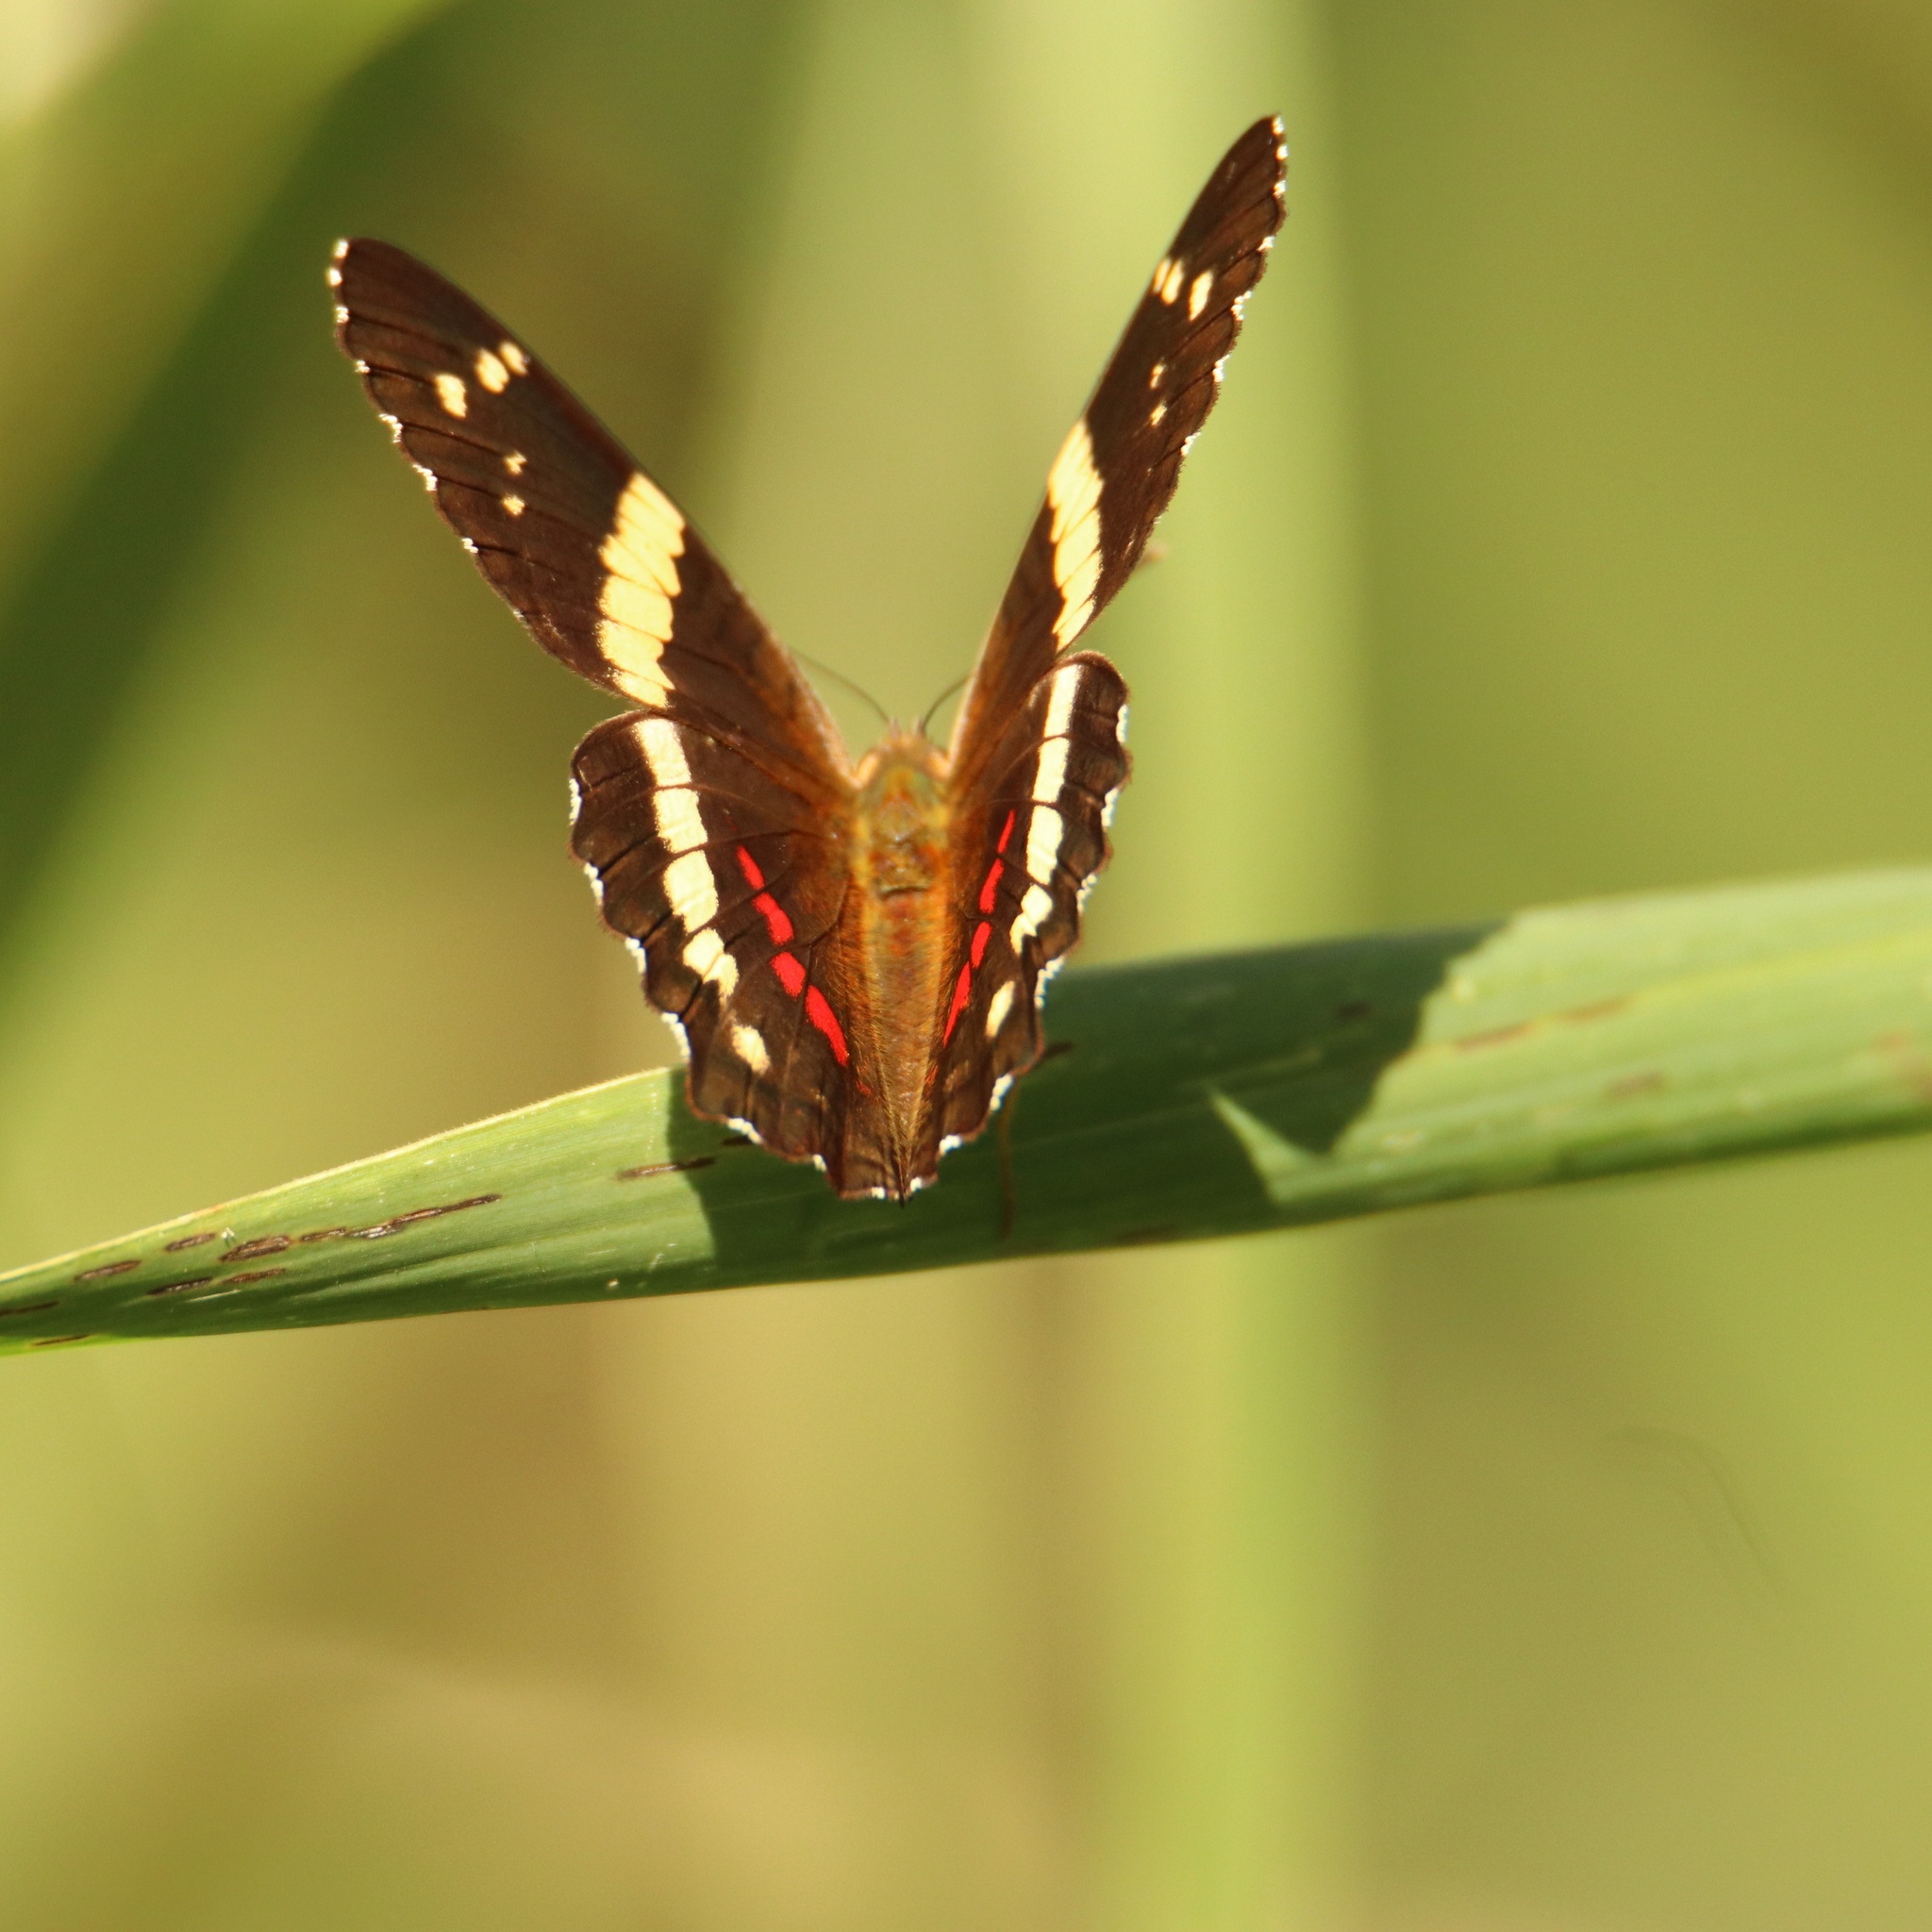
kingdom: Animalia
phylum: Arthropoda
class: Insecta
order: Lepidoptera
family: Nymphalidae
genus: Anartia
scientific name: Anartia fatima
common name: Banded peacock
